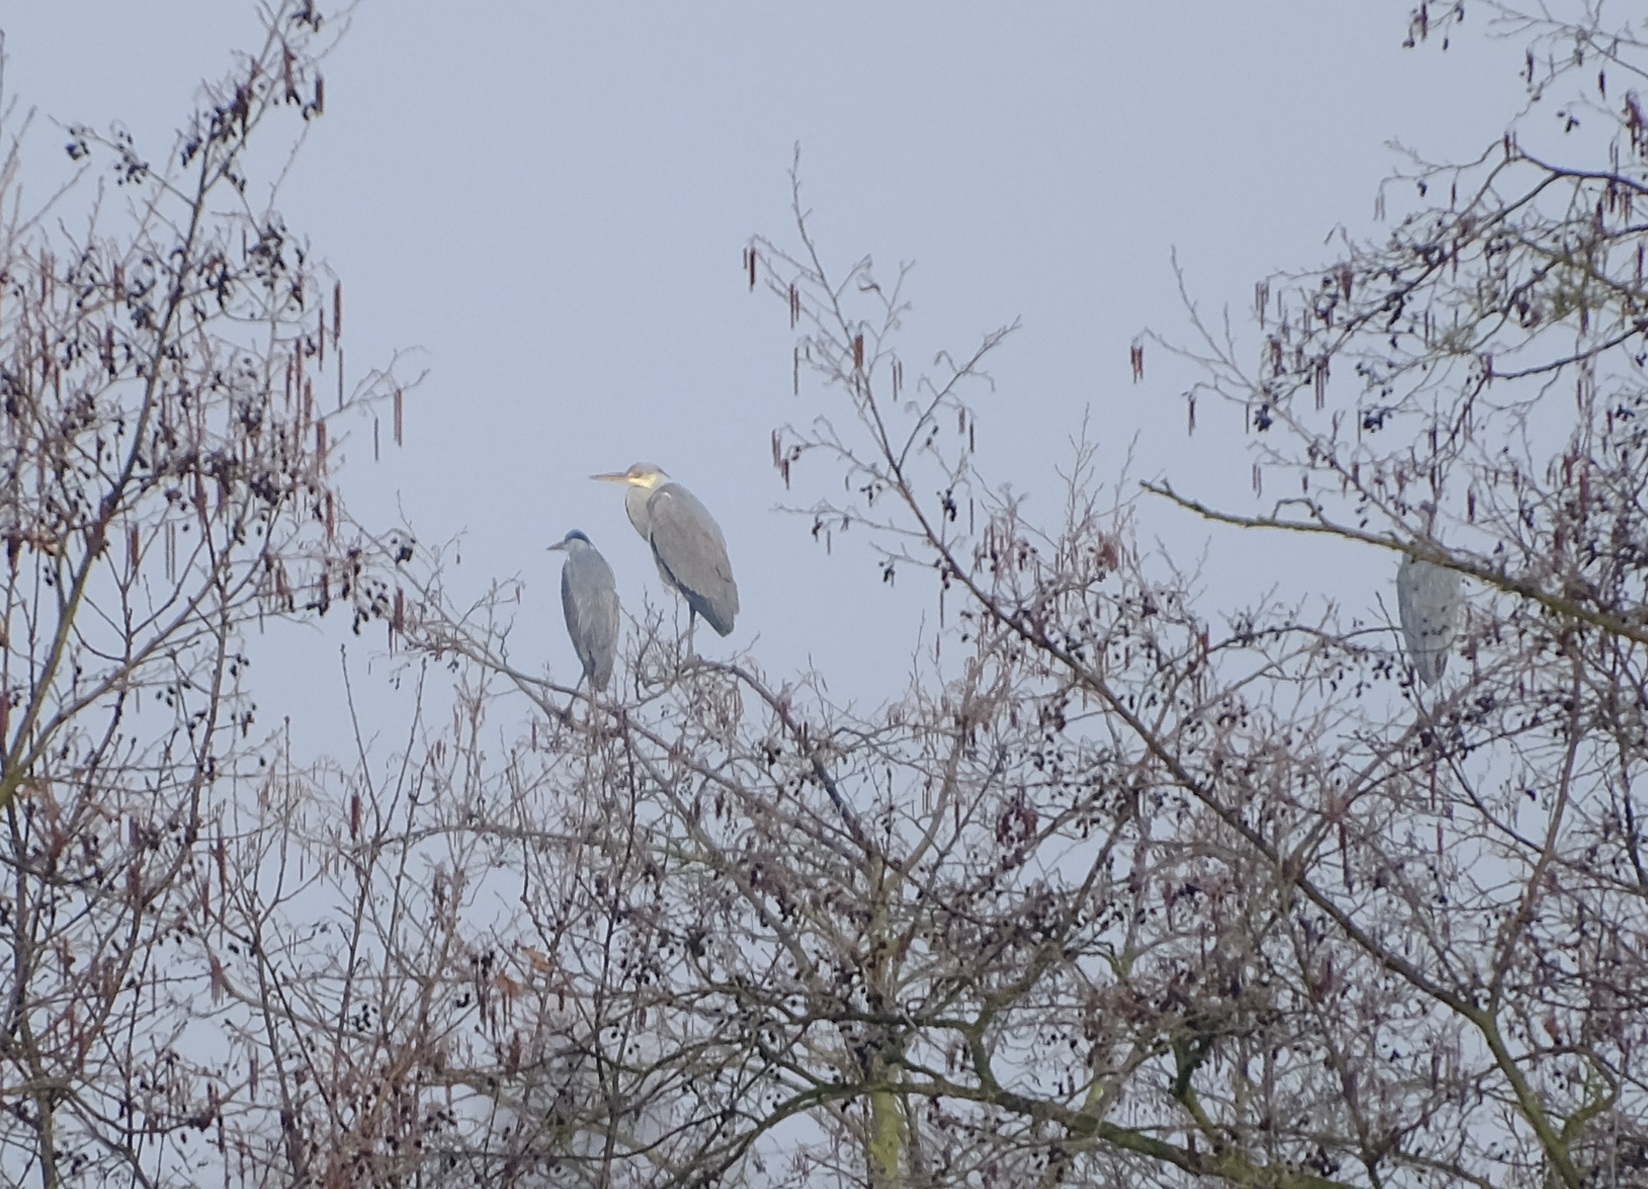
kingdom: Animalia
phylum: Chordata
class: Aves
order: Pelecaniformes
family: Ardeidae
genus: Ardea
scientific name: Ardea cinerea
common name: Grey heron
